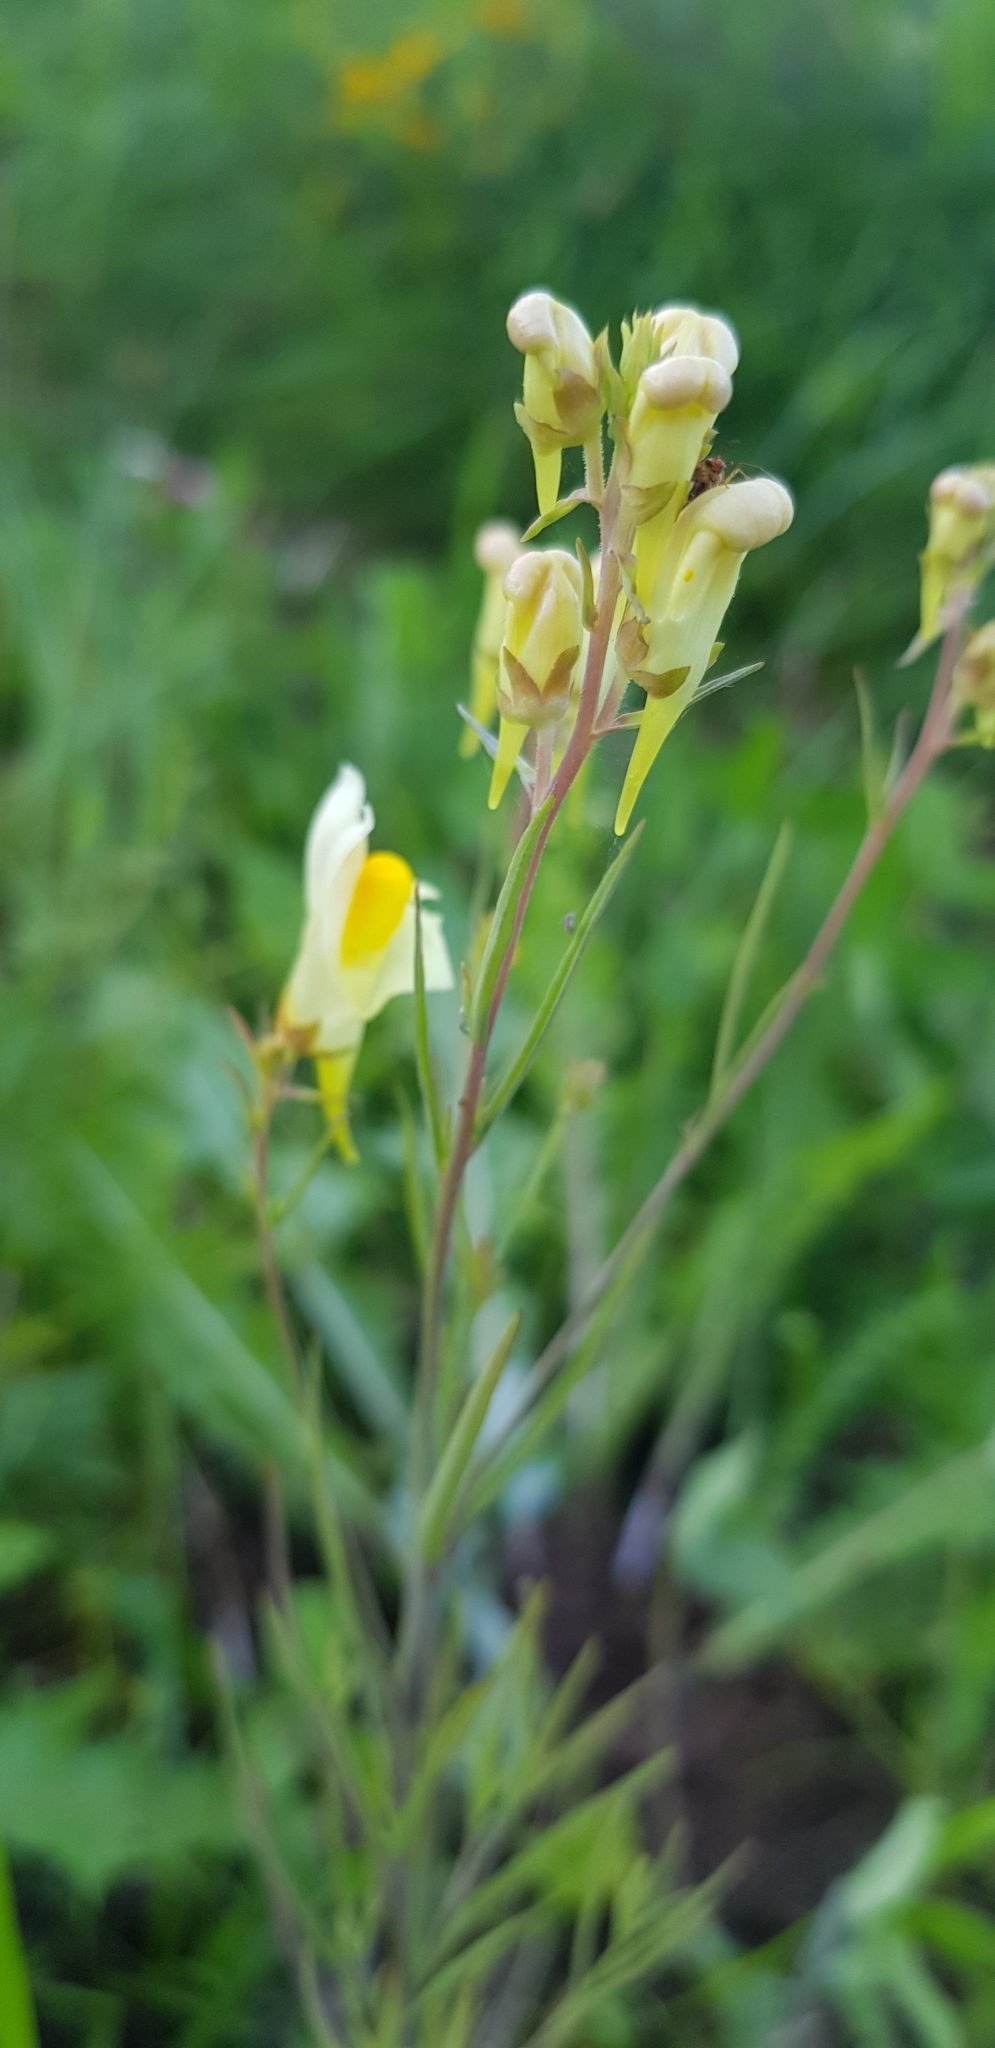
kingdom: Plantae
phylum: Tracheophyta
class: Magnoliopsida
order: Lamiales
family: Plantaginaceae
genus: Linaria
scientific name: Linaria vulgaris
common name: Butter and eggs
